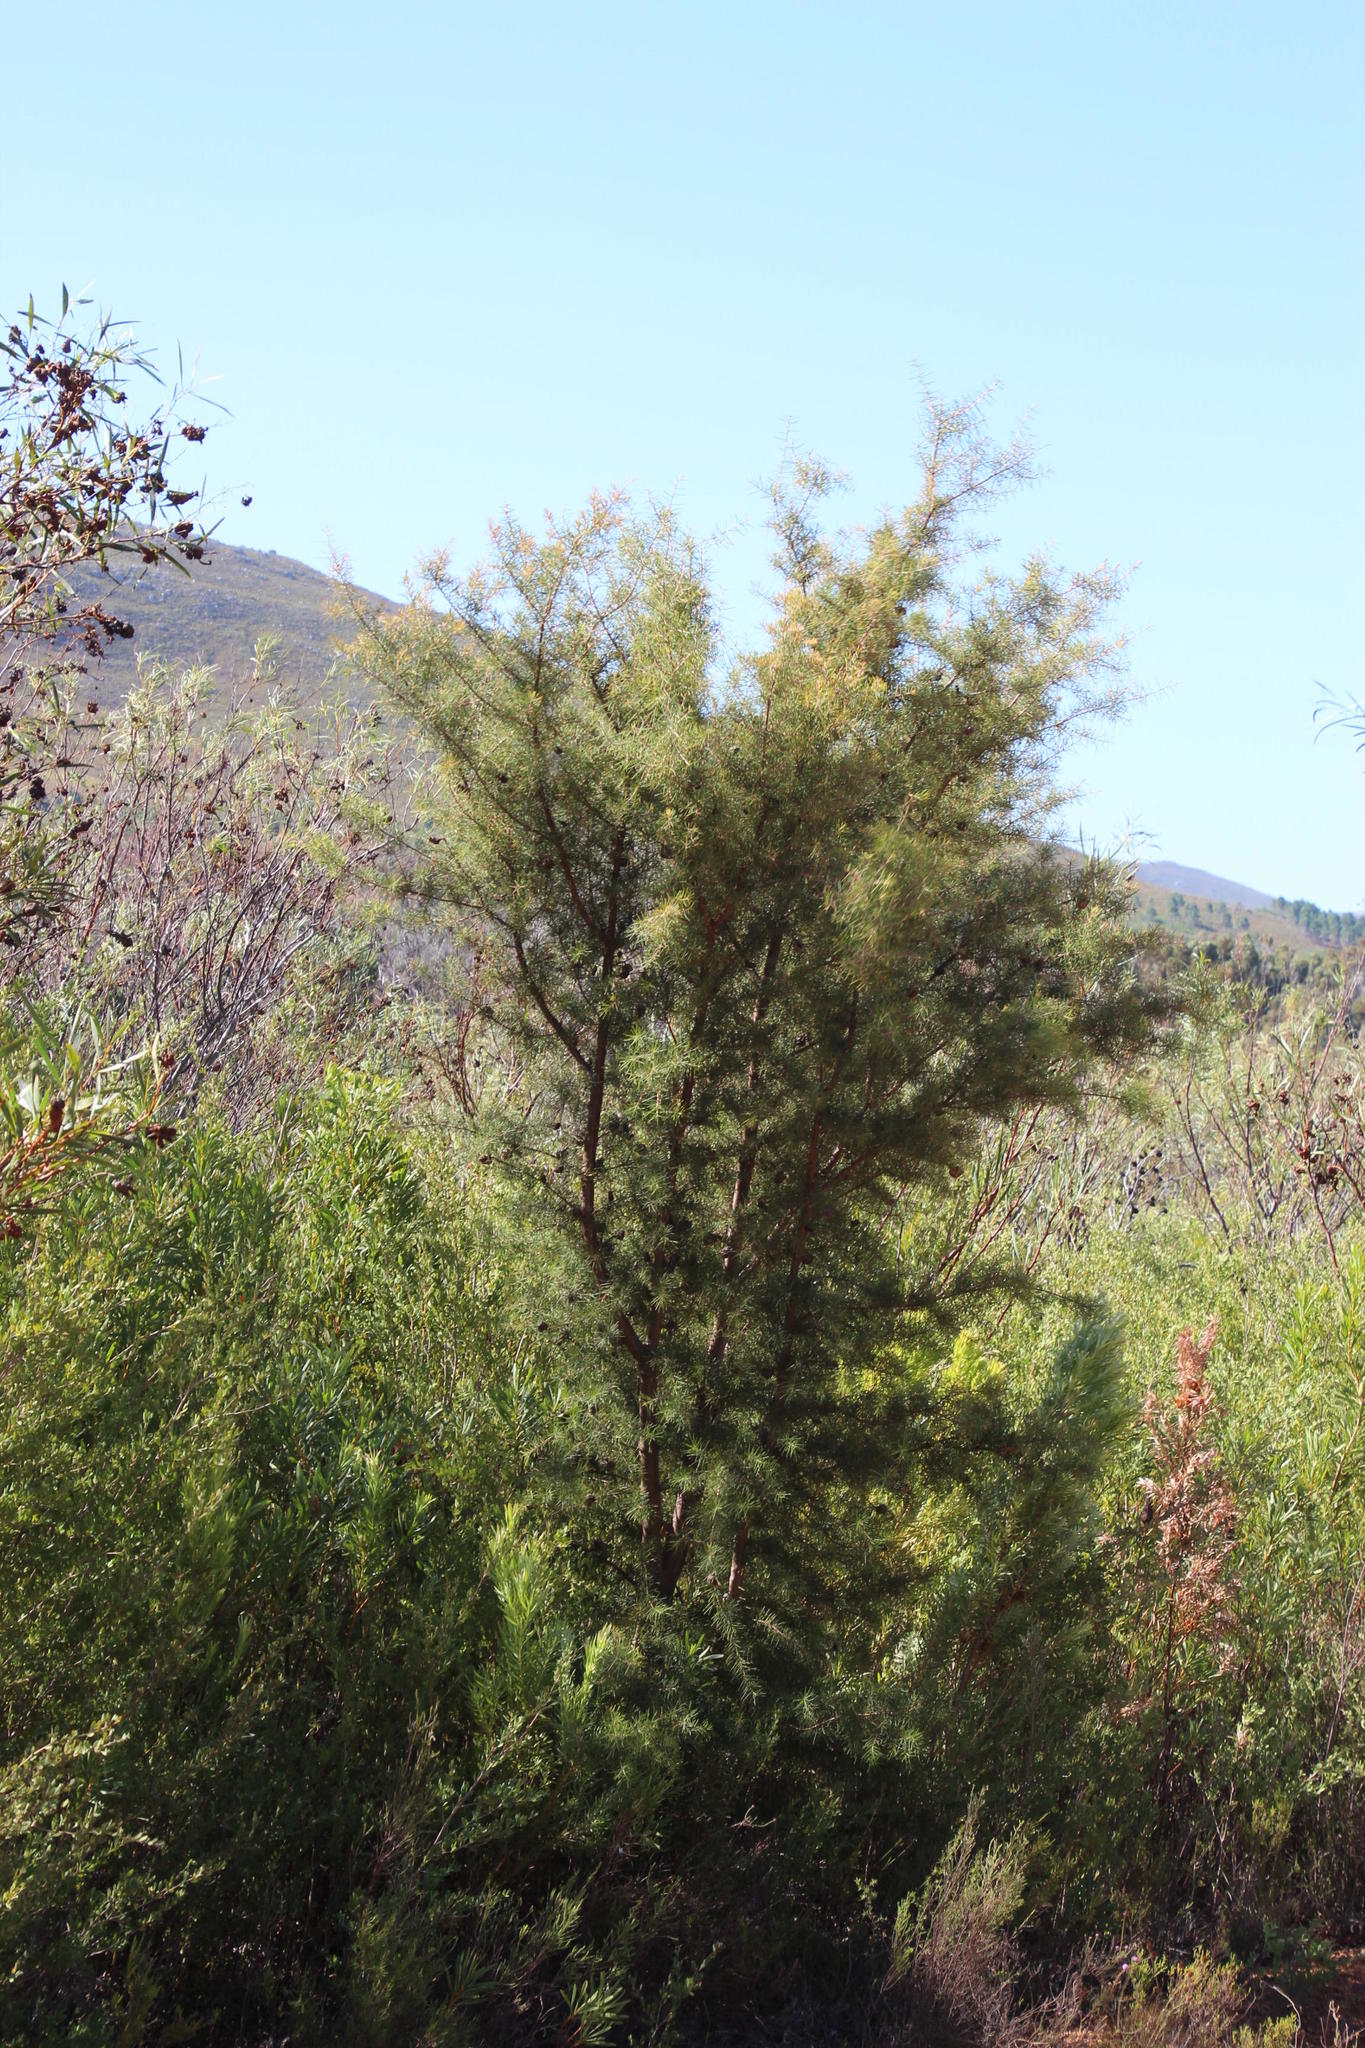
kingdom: Plantae
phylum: Tracheophyta
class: Magnoliopsida
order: Proteales
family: Proteaceae
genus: Hakea
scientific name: Hakea sericea
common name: Needle bush
